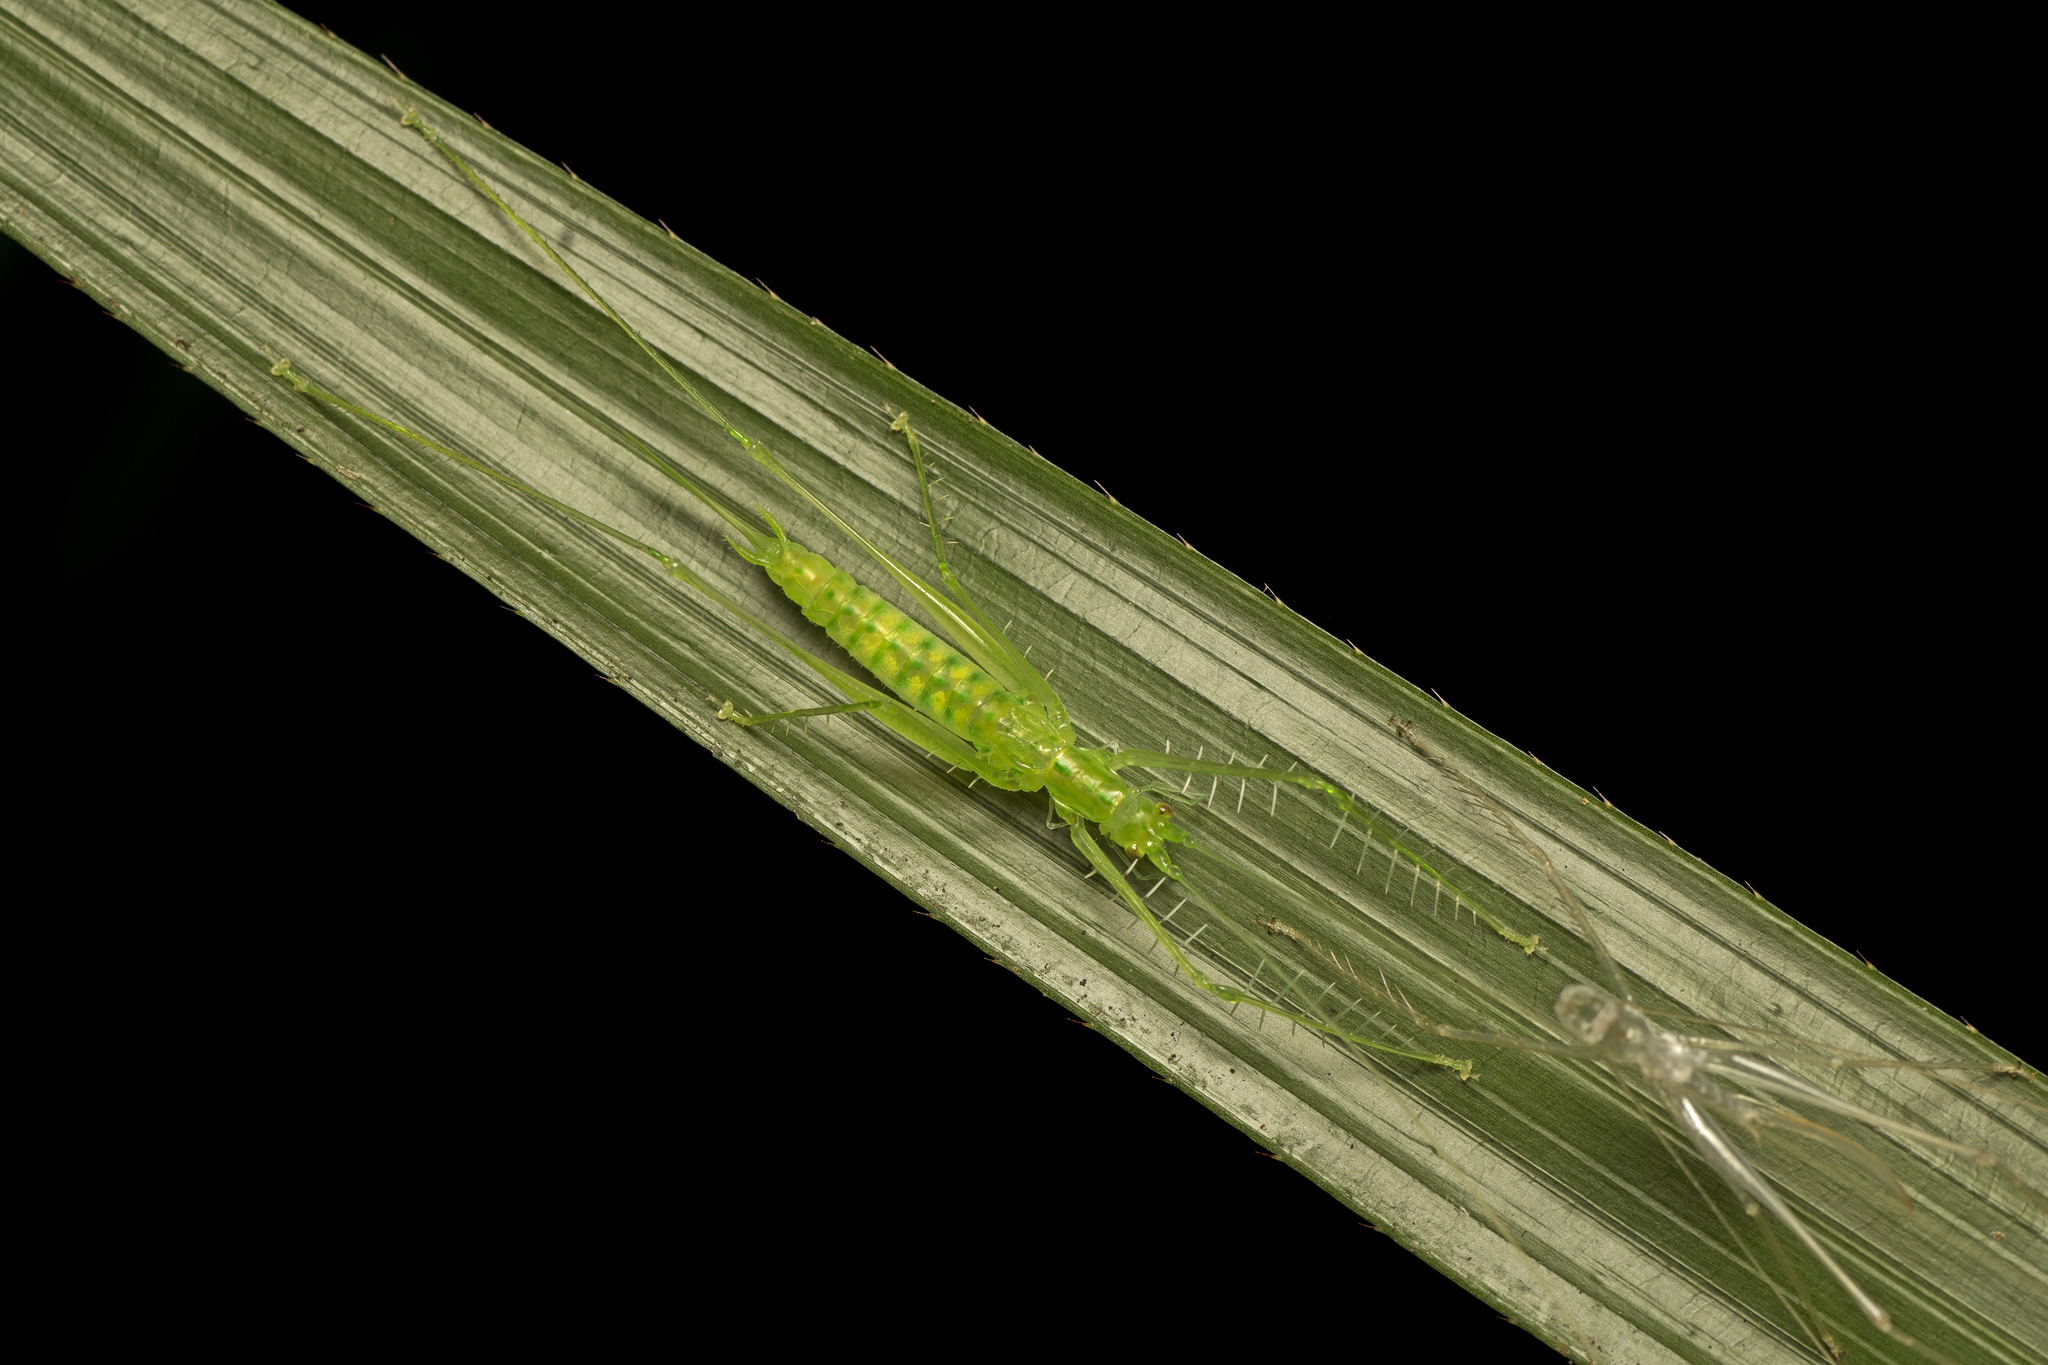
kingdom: Animalia
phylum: Arthropoda
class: Insecta
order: Orthoptera
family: Tettigoniidae
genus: Meiophisis
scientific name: Meiophisis likkaldin
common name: Short-winged spider katydid
